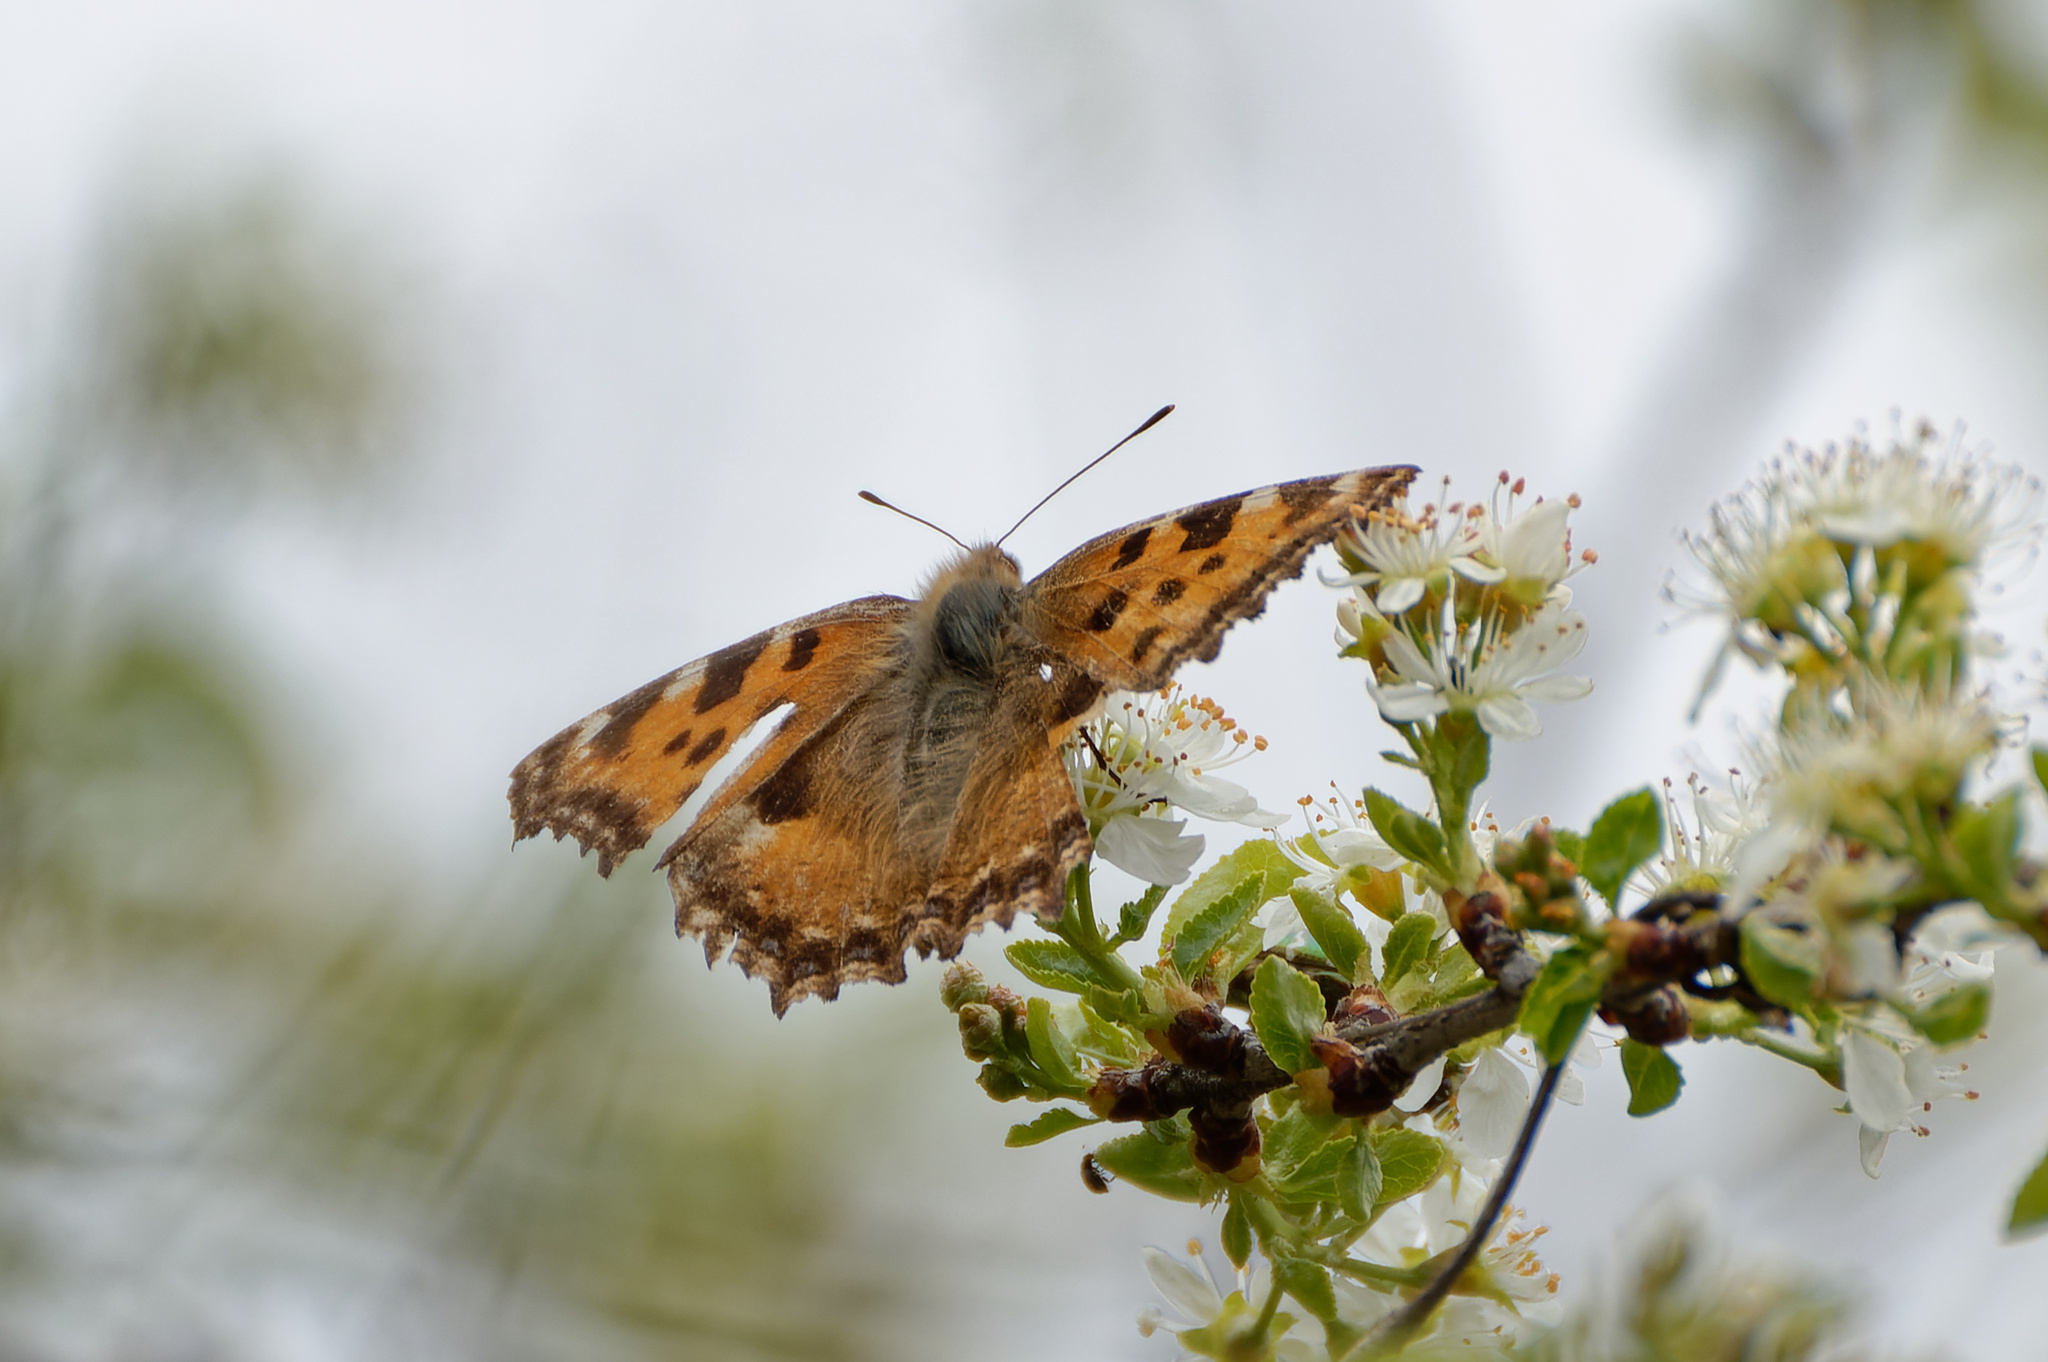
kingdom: Animalia
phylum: Arthropoda
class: Insecta
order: Lepidoptera
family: Nymphalidae
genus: Nymphalis
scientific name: Nymphalis polychloros
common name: Large tortoiseshell
